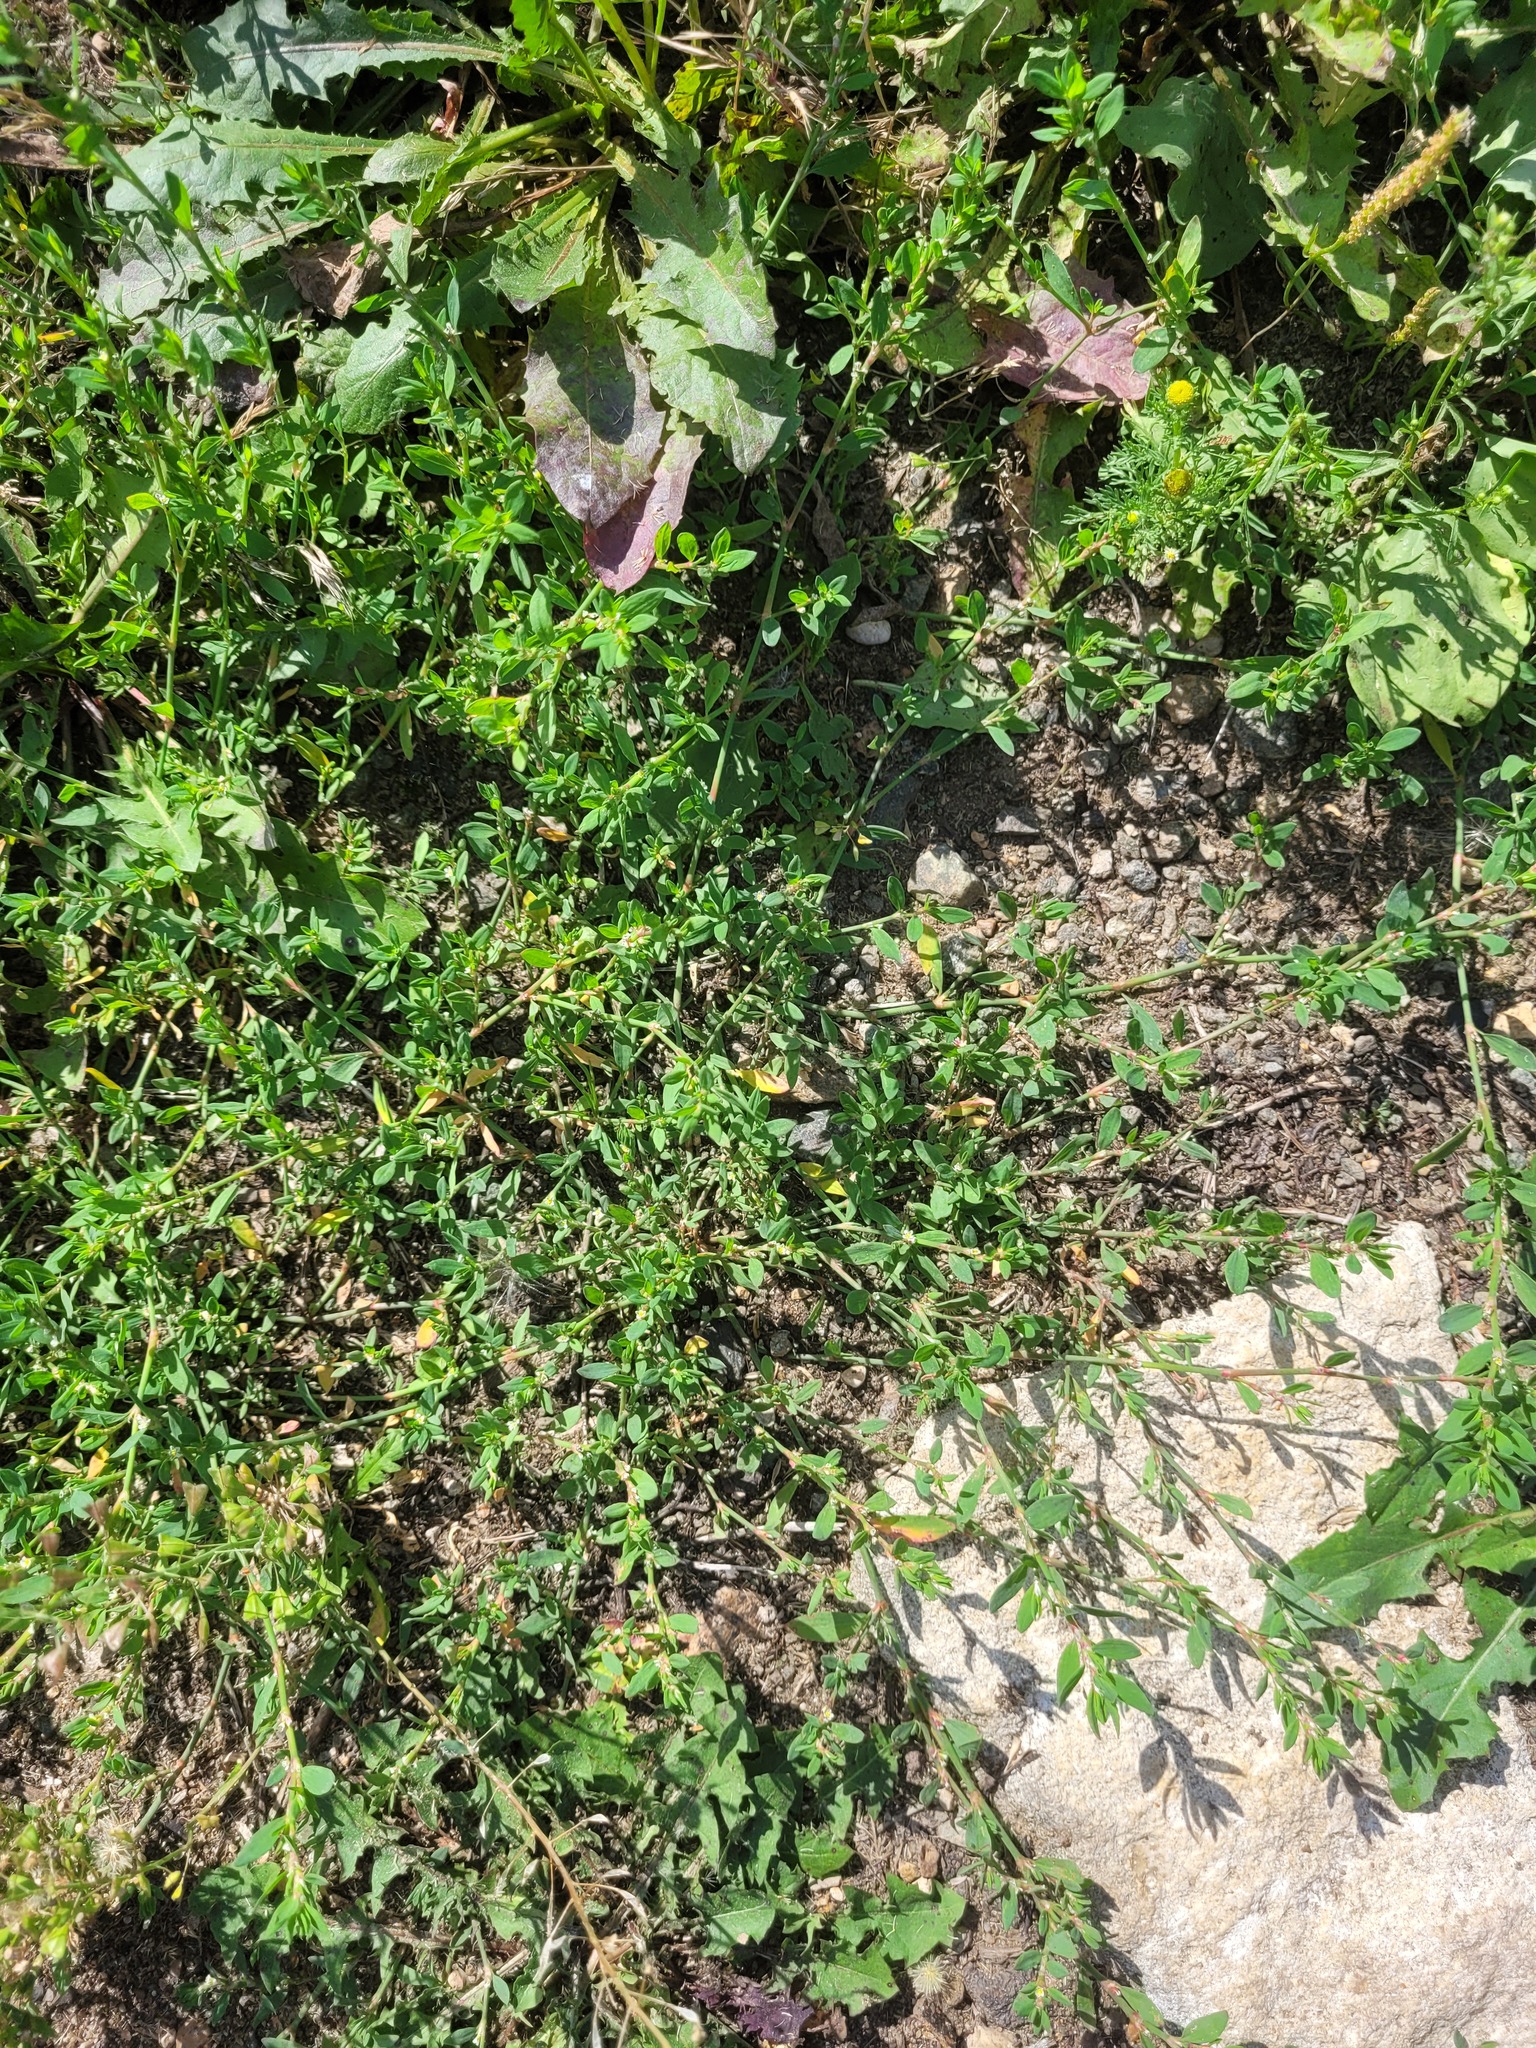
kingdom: Plantae
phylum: Tracheophyta
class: Magnoliopsida
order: Caryophyllales
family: Polygonaceae
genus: Polygonum
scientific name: Polygonum
